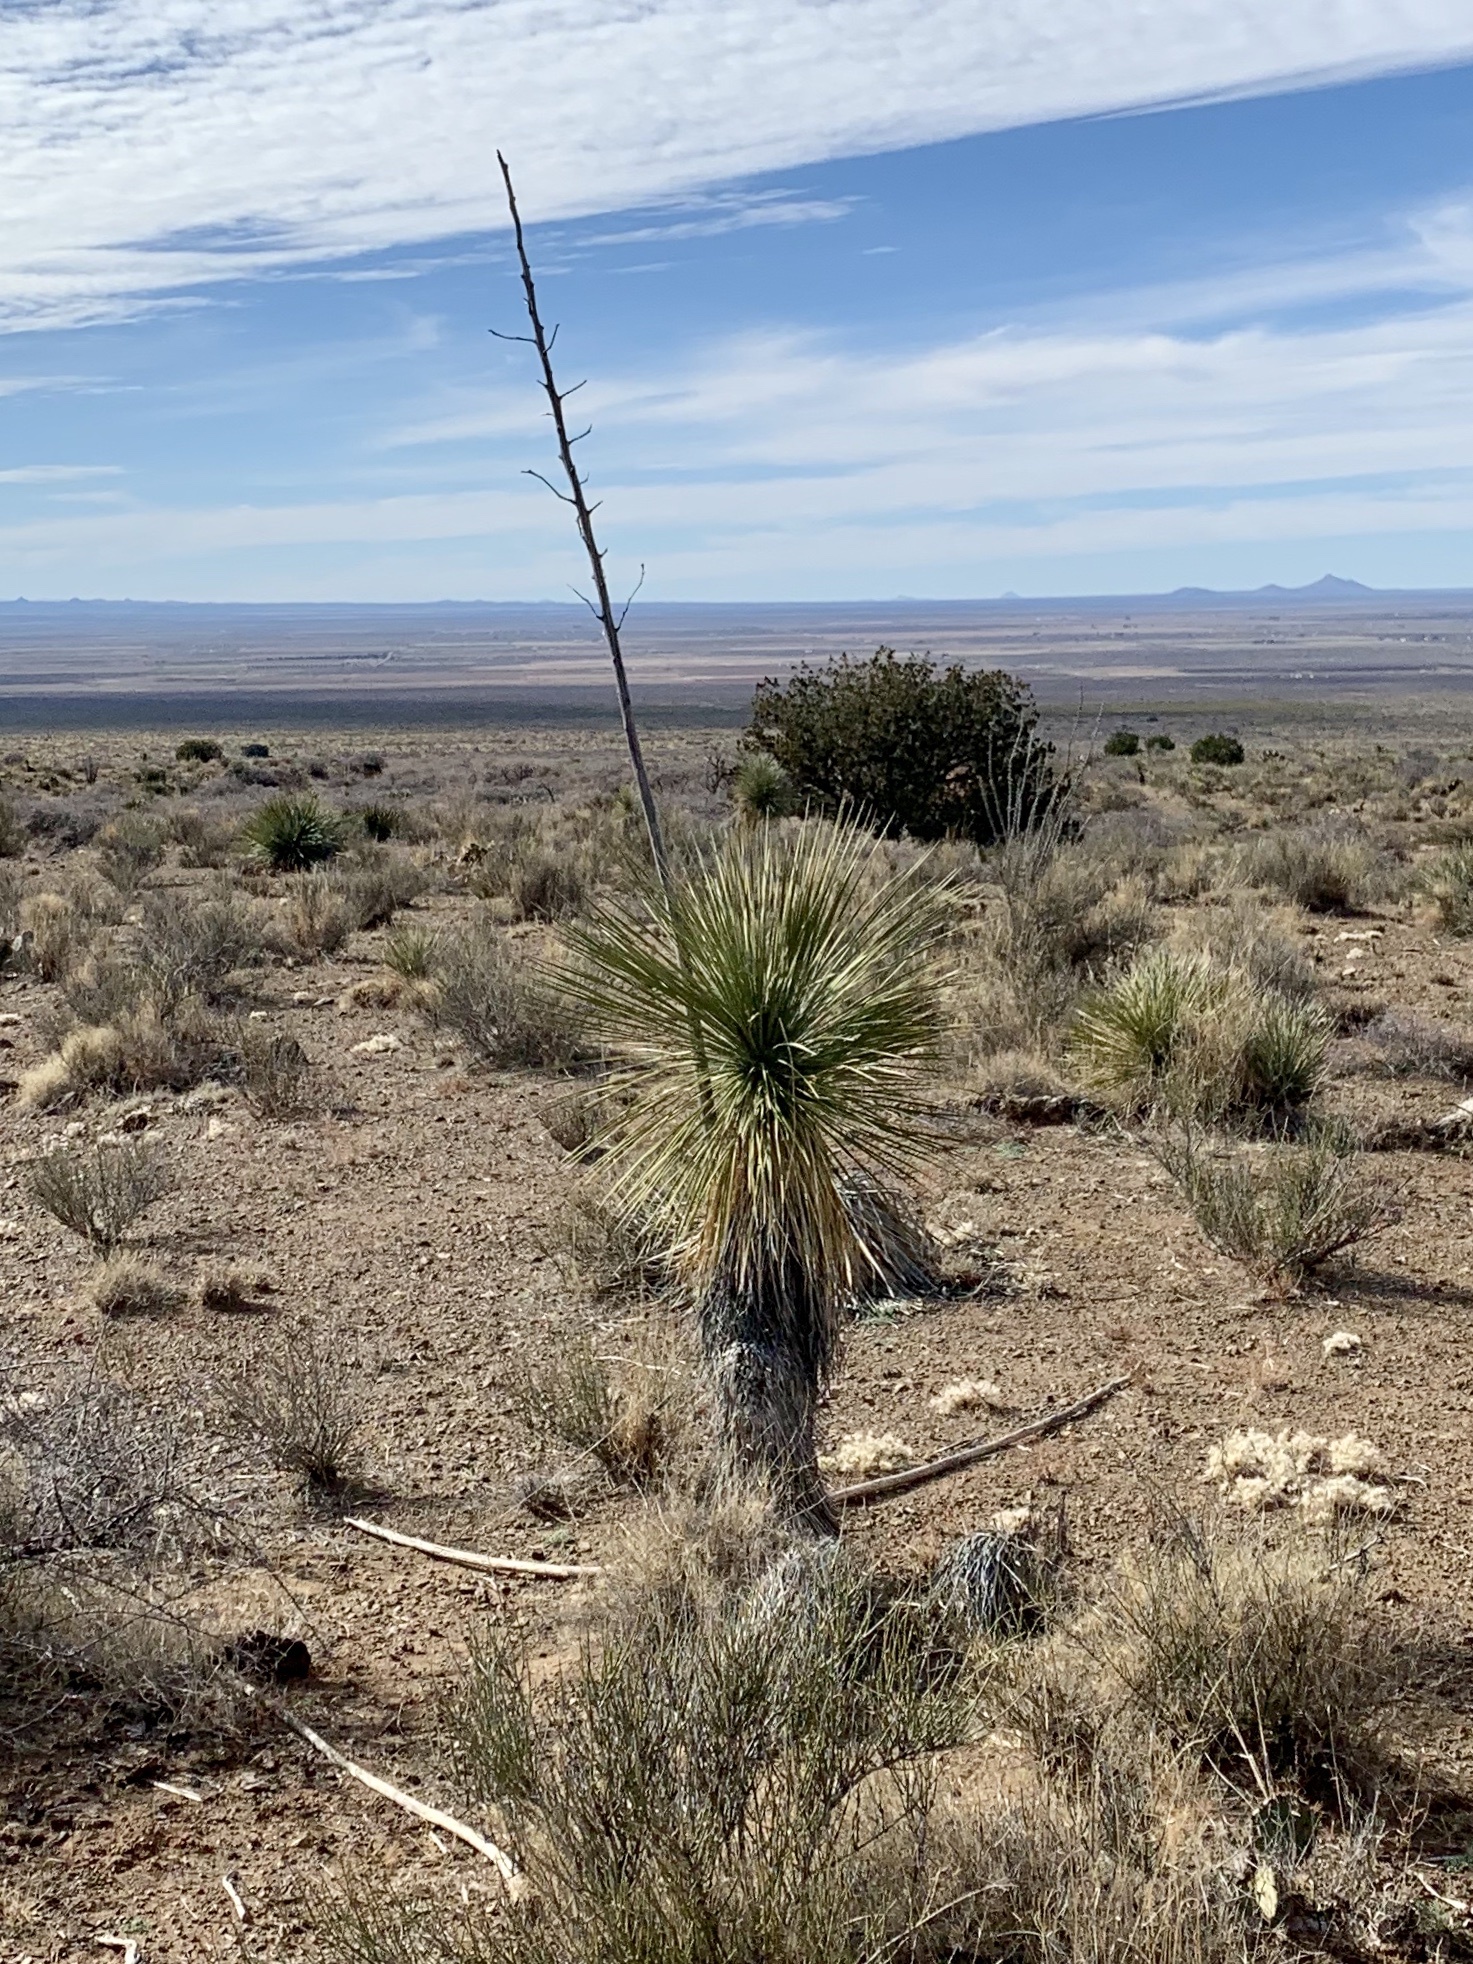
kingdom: Plantae
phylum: Tracheophyta
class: Liliopsida
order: Asparagales
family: Asparagaceae
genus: Yucca
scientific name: Yucca elata
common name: Palmella
